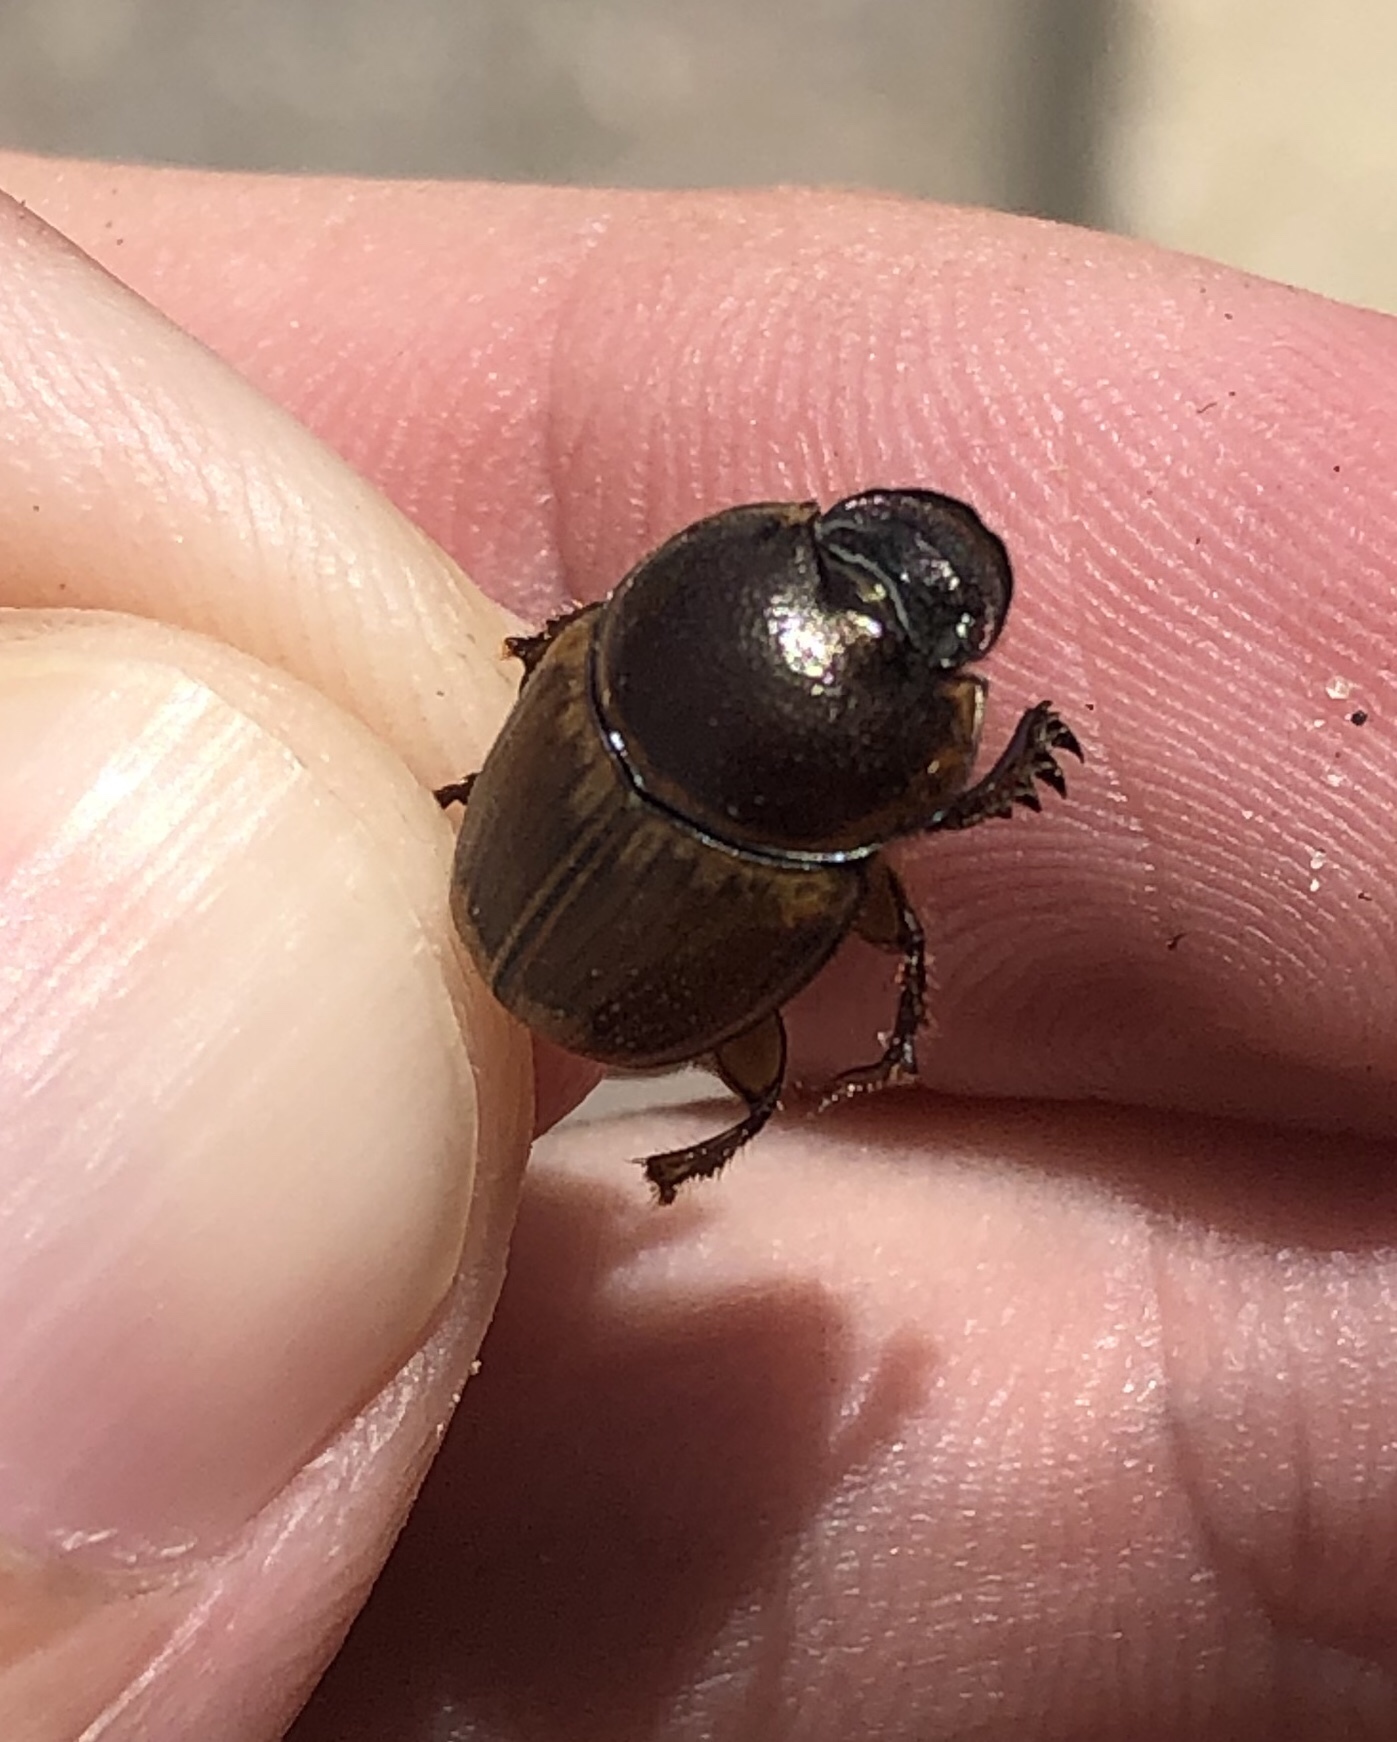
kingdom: Animalia
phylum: Arthropoda
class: Insecta
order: Coleoptera
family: Scarabaeidae
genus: Digitonthophagus
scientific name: Digitonthophagus gazella
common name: Brown dung beetle
